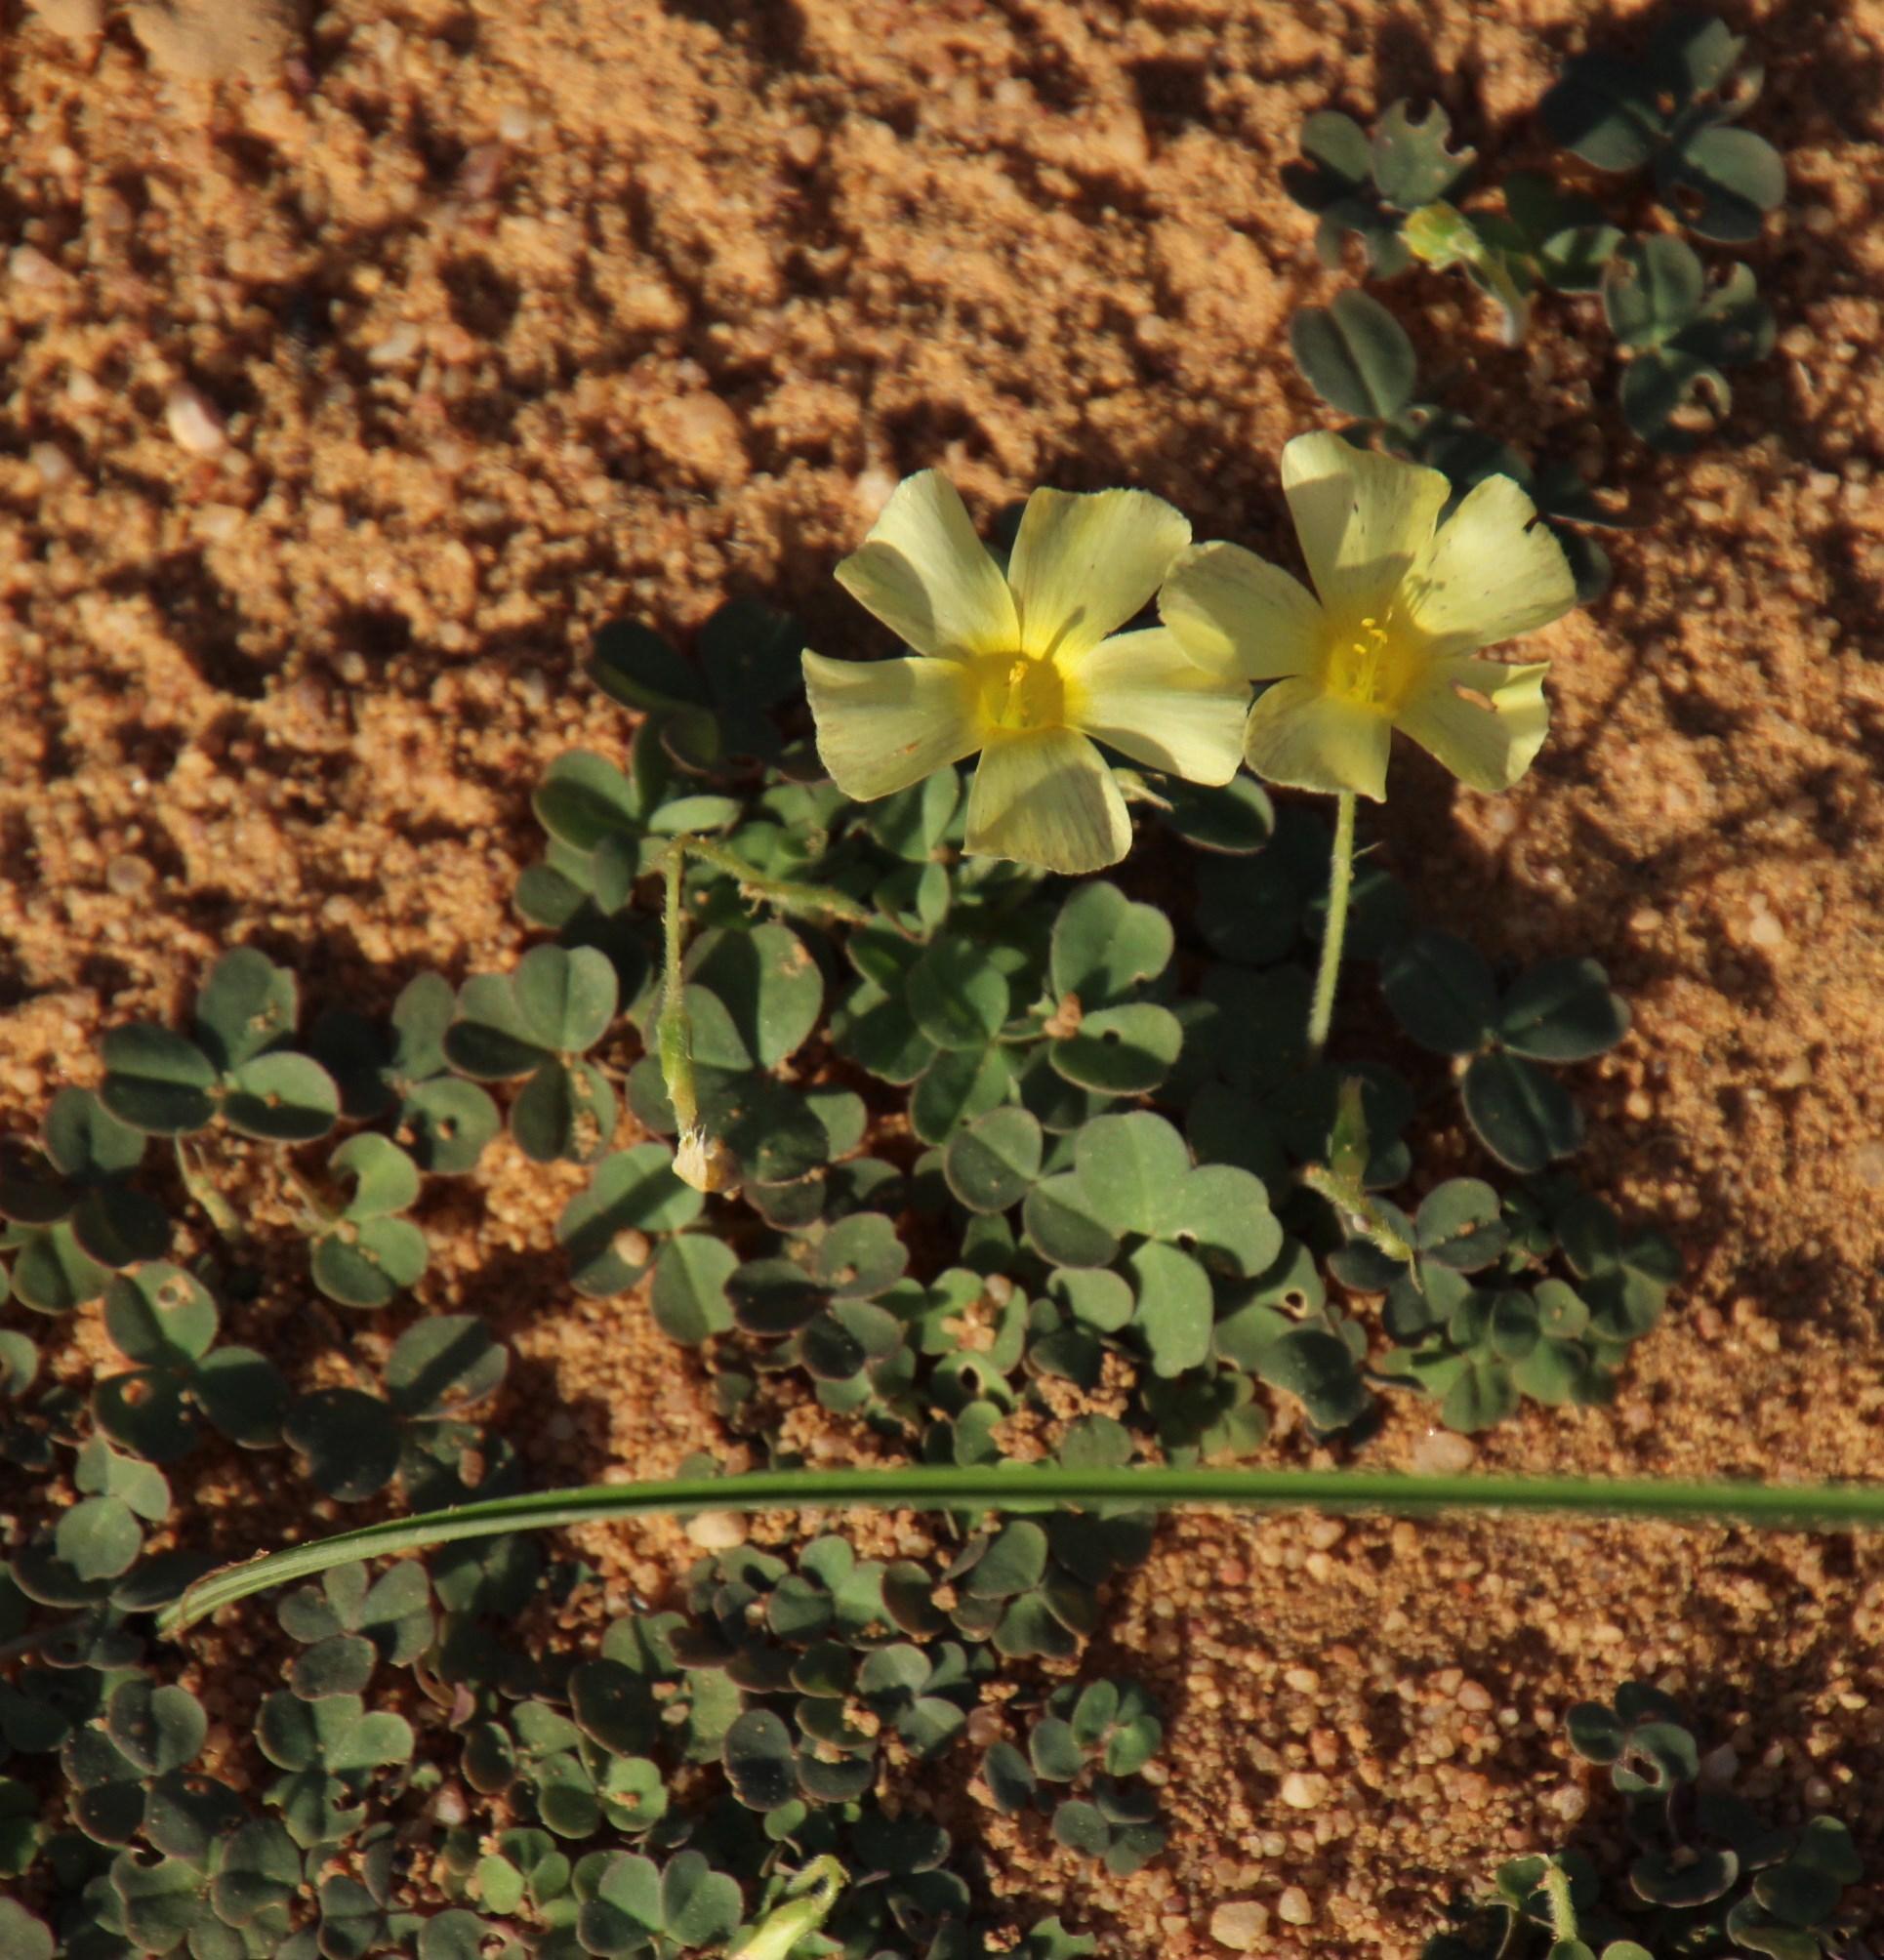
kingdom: Plantae
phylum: Tracheophyta
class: Magnoliopsida
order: Oxalidales
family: Oxalidaceae
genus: Oxalis
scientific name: Oxalis obtusa
